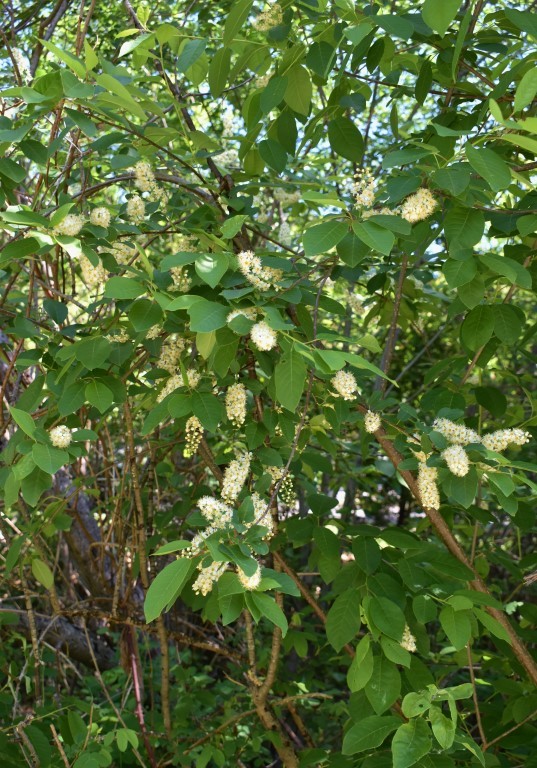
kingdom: Plantae
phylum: Tracheophyta
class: Magnoliopsida
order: Rosales
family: Rosaceae
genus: Prunus
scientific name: Prunus virginiana
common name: Chokecherry
